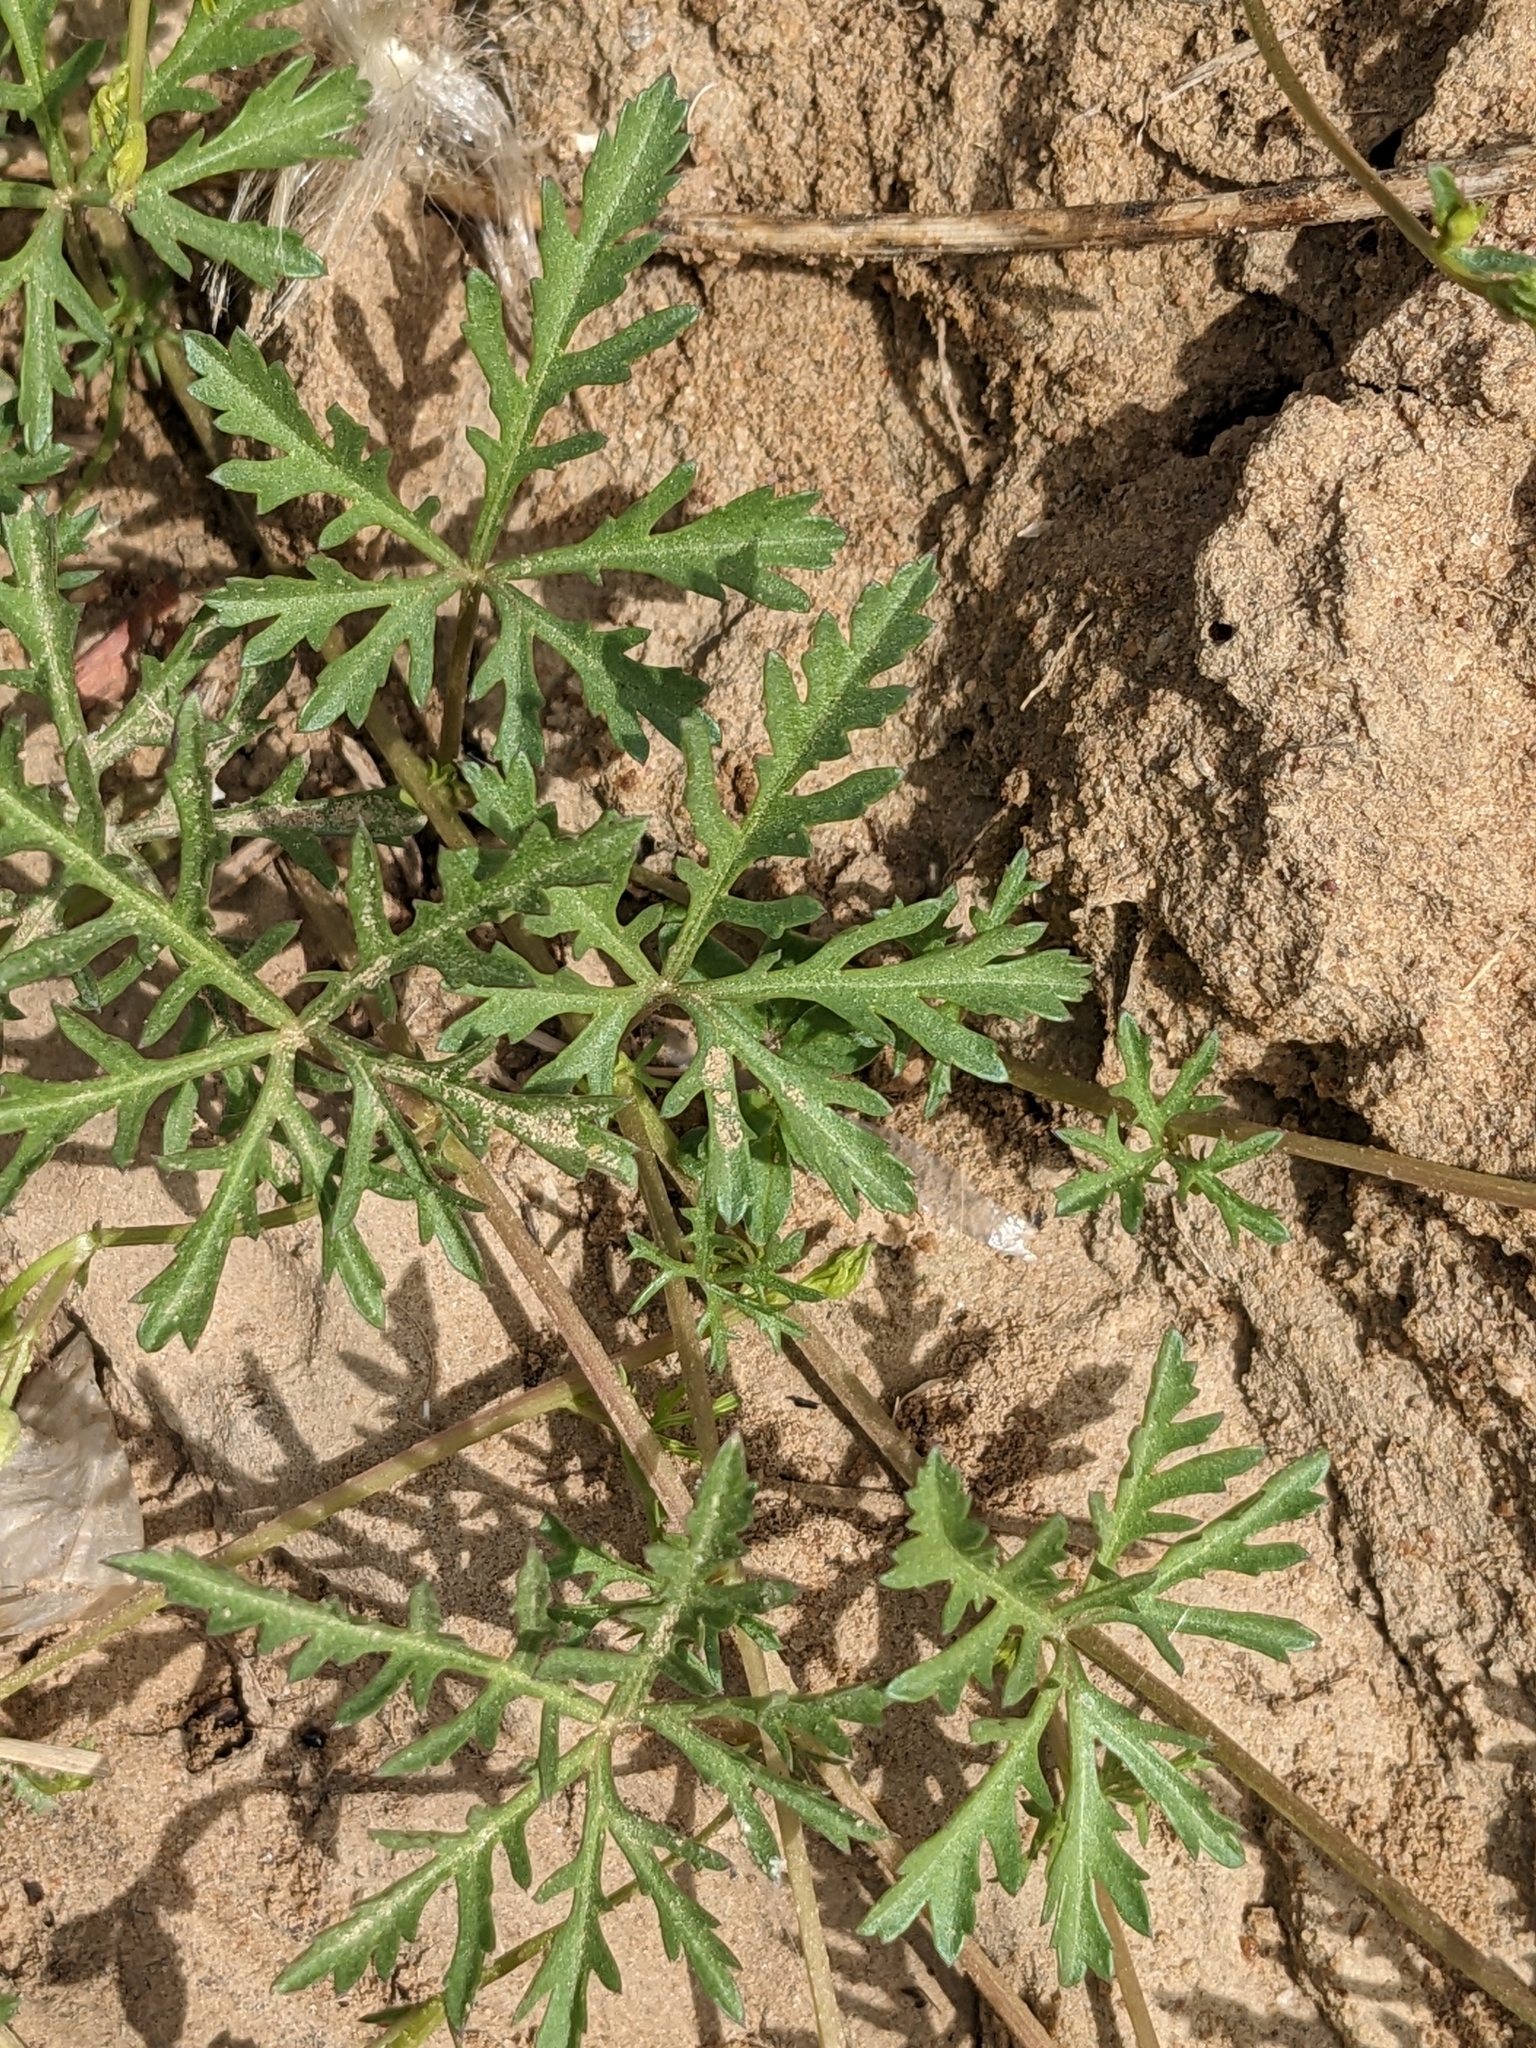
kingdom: Plantae
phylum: Tracheophyta
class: Magnoliopsida
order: Solanales
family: Convolvulaceae
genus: Ipomoea
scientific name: Ipomoea coptica
